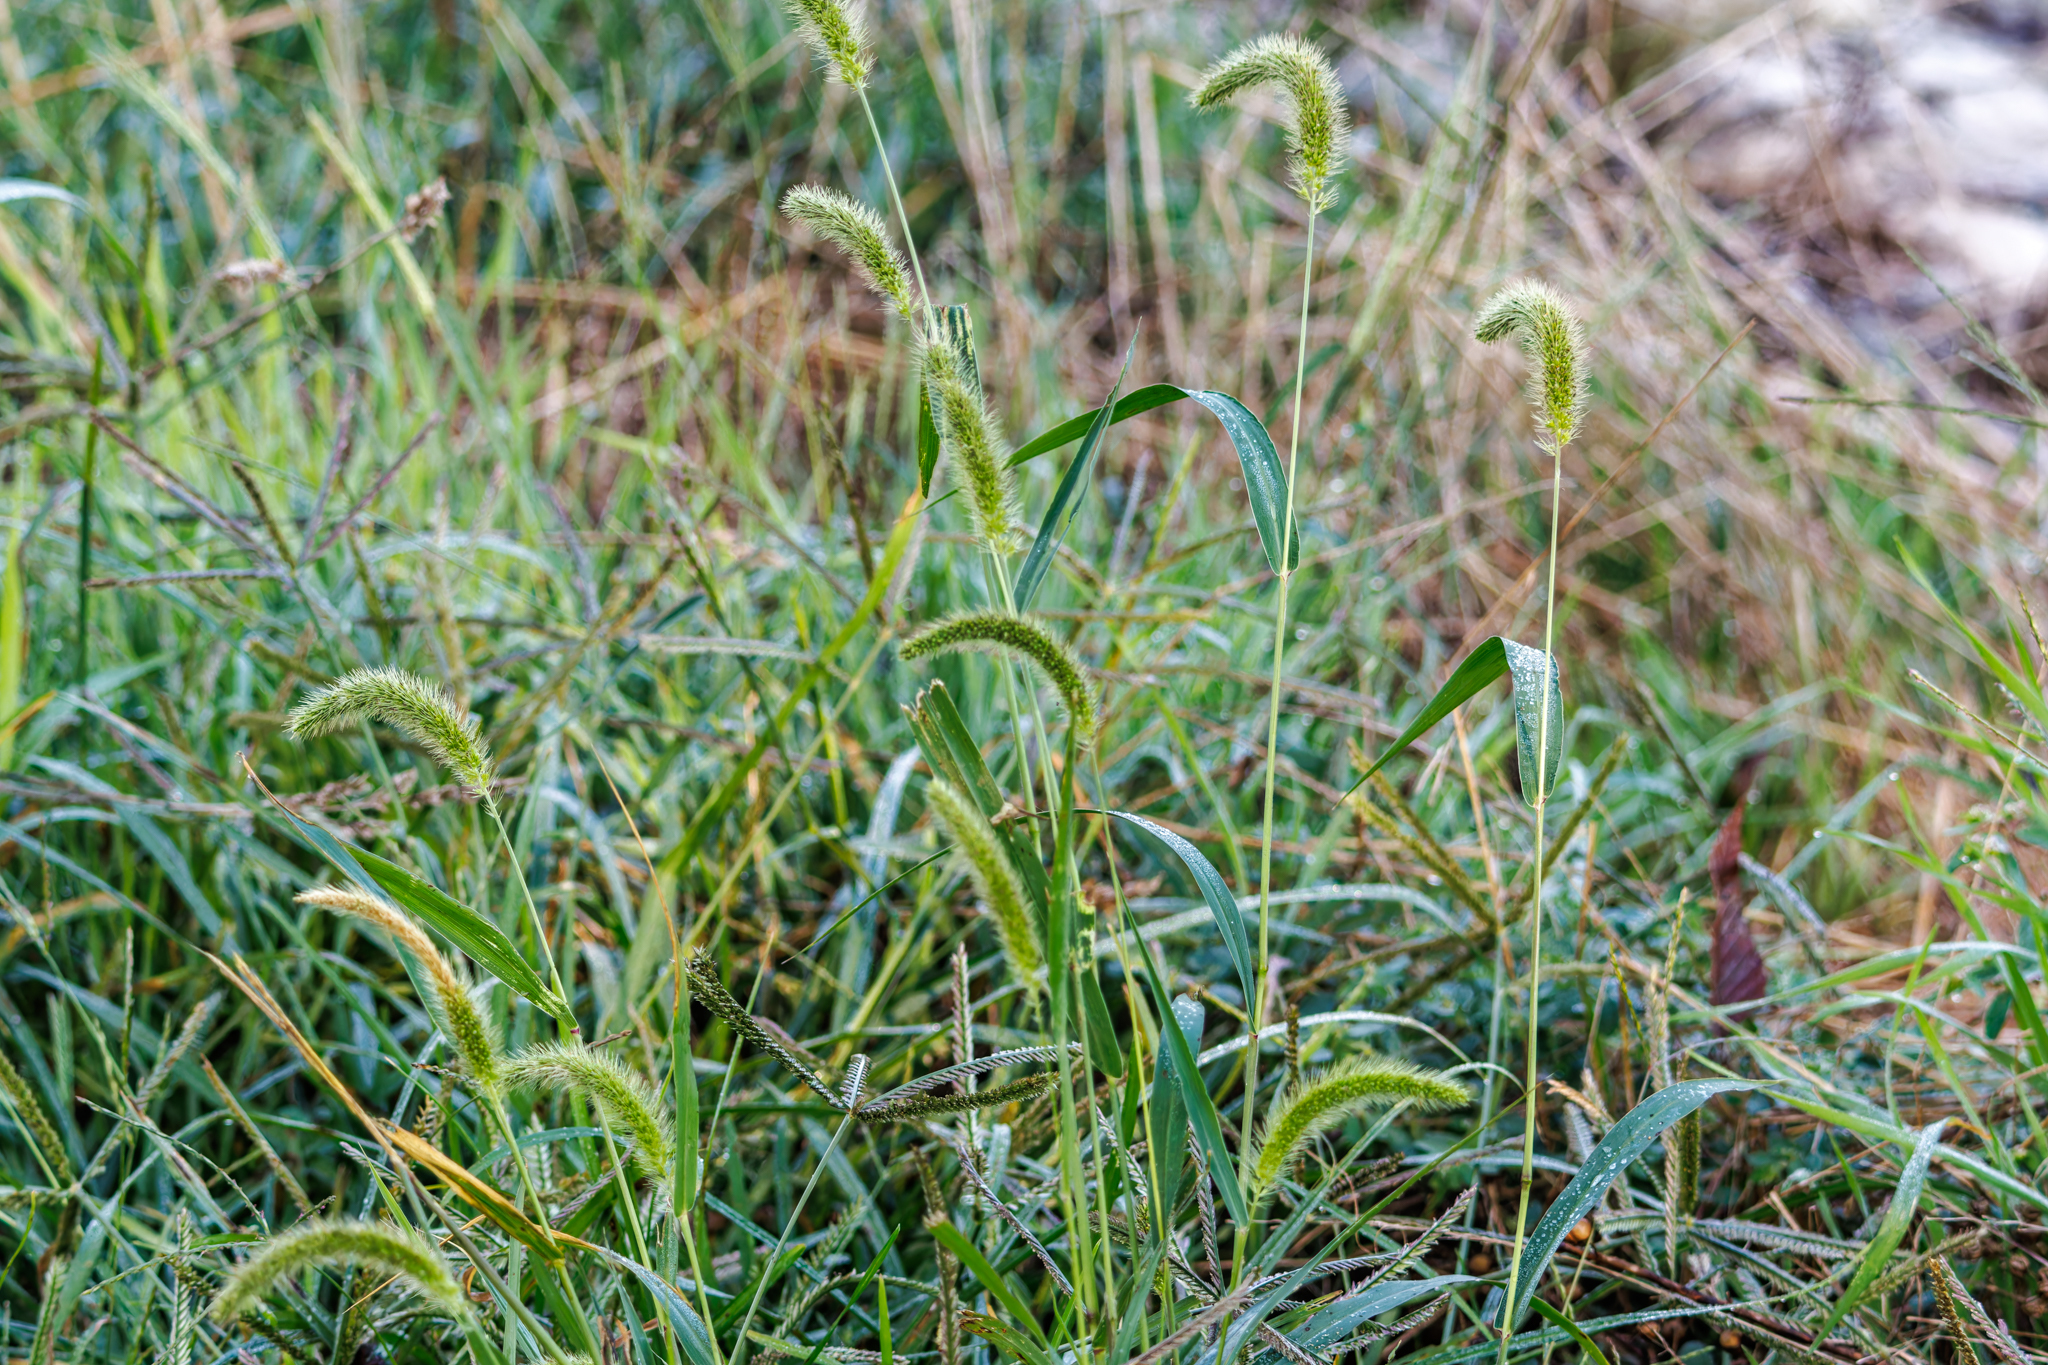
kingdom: Plantae
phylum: Tracheophyta
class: Liliopsida
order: Poales
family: Poaceae
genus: Setaria
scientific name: Setaria viridis
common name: Green bristlegrass
